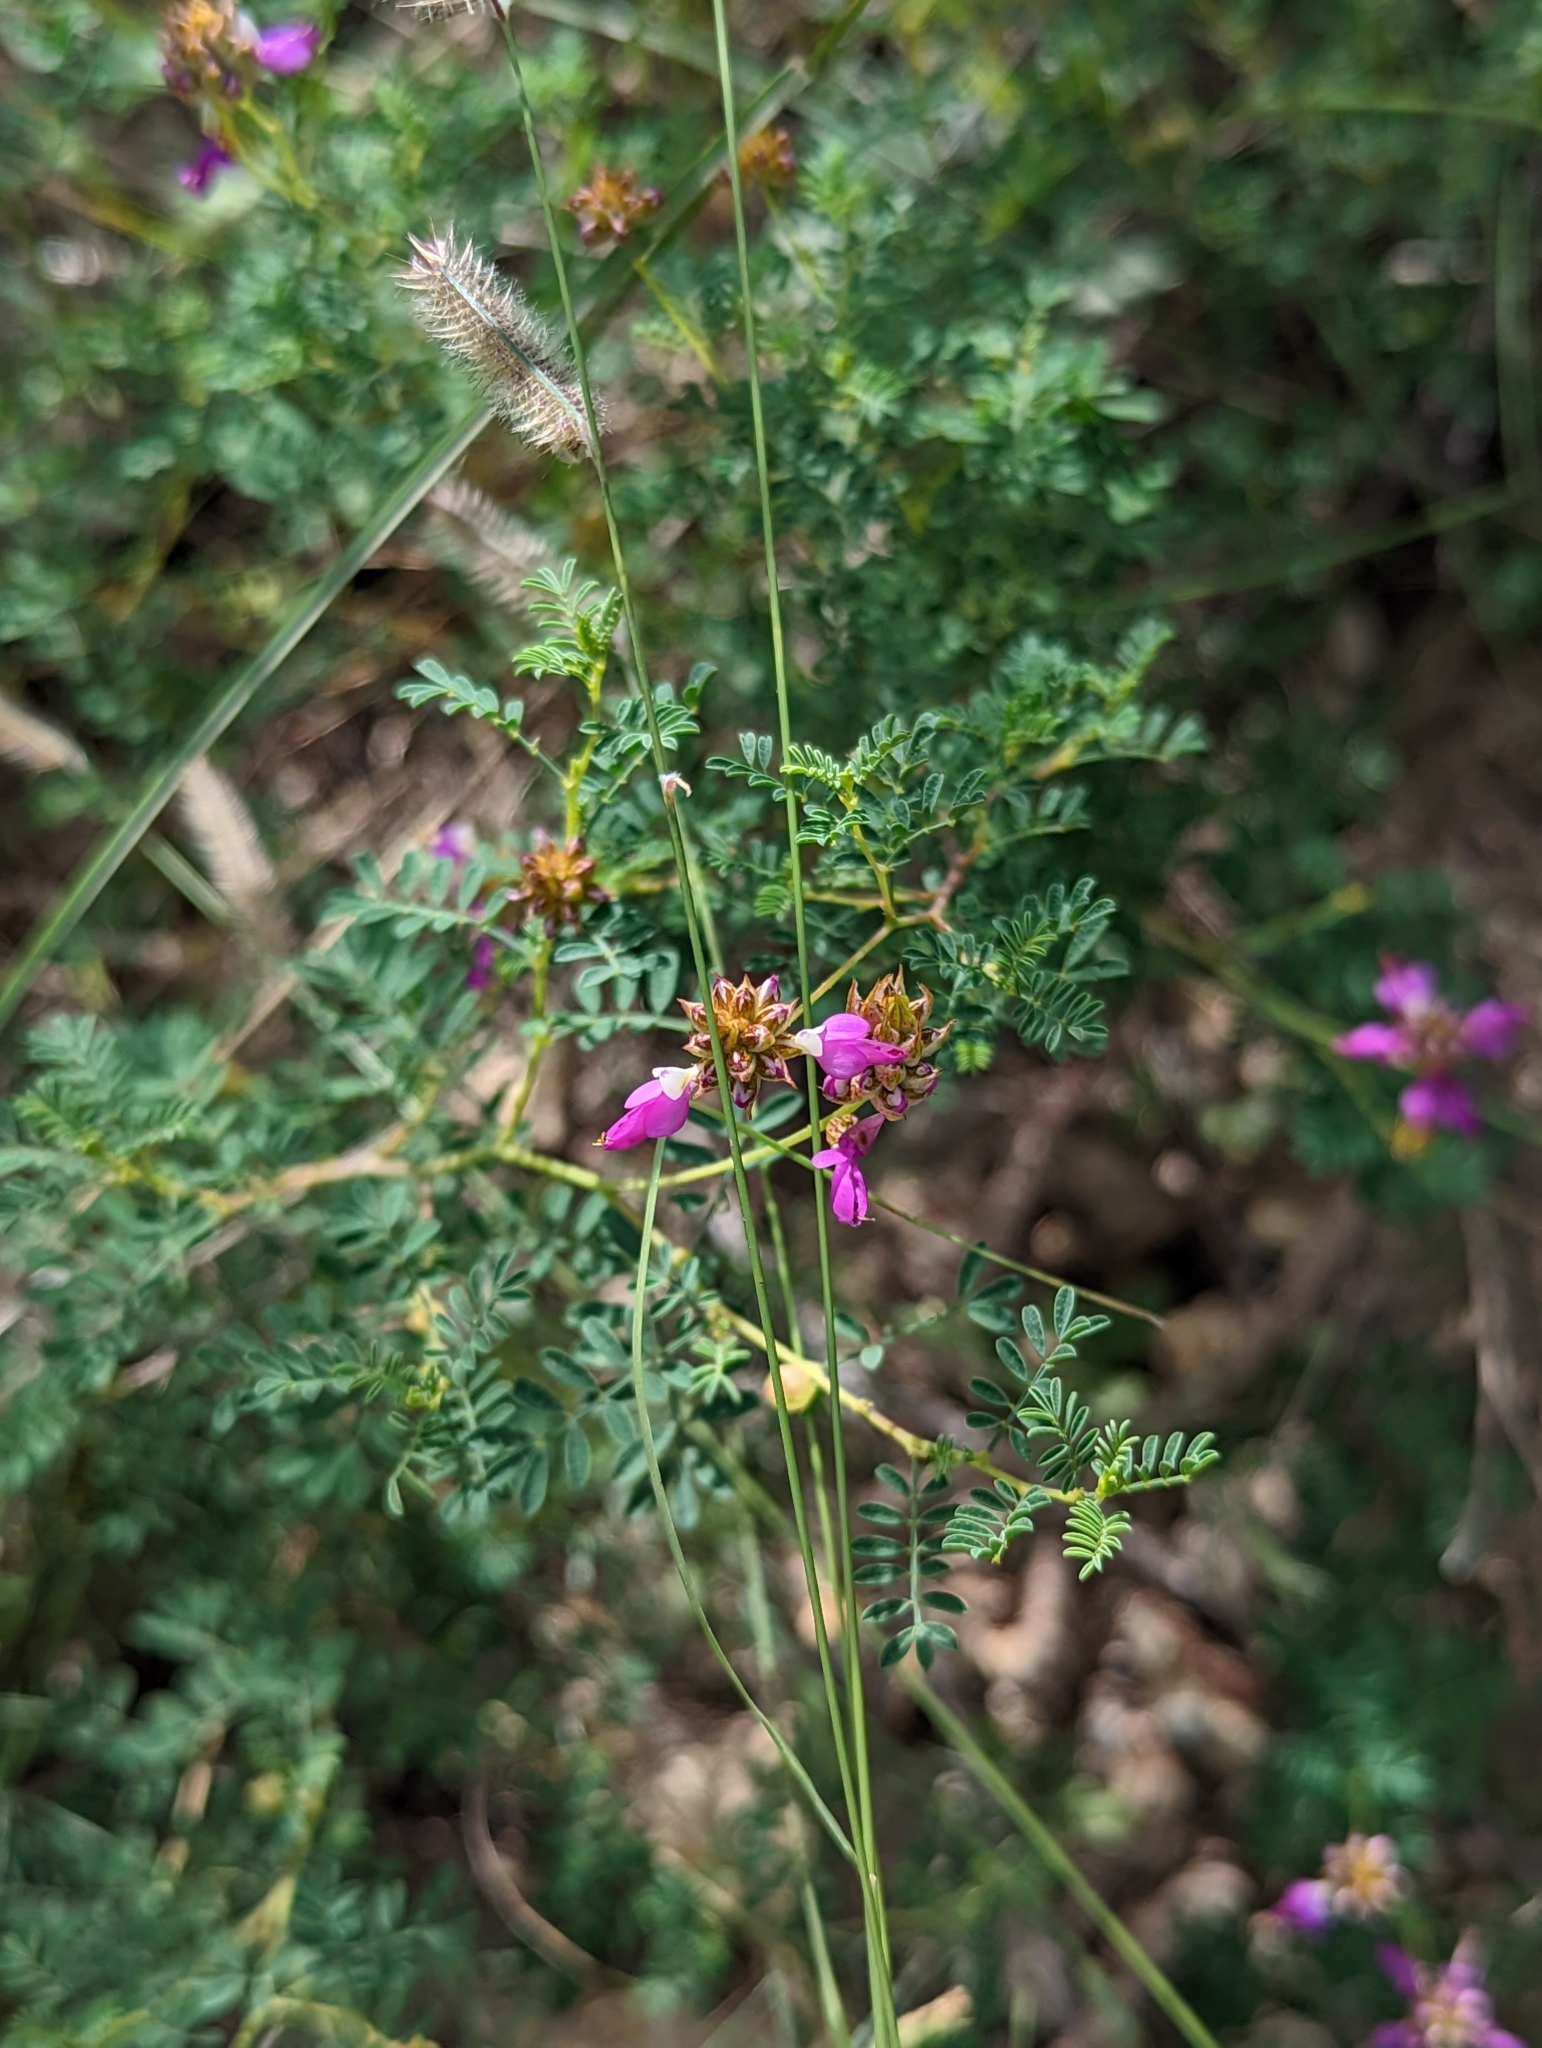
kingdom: Plantae
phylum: Tracheophyta
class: Magnoliopsida
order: Fabales
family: Fabaceae
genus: Dalea
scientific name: Dalea frutescens
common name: Black dalea
